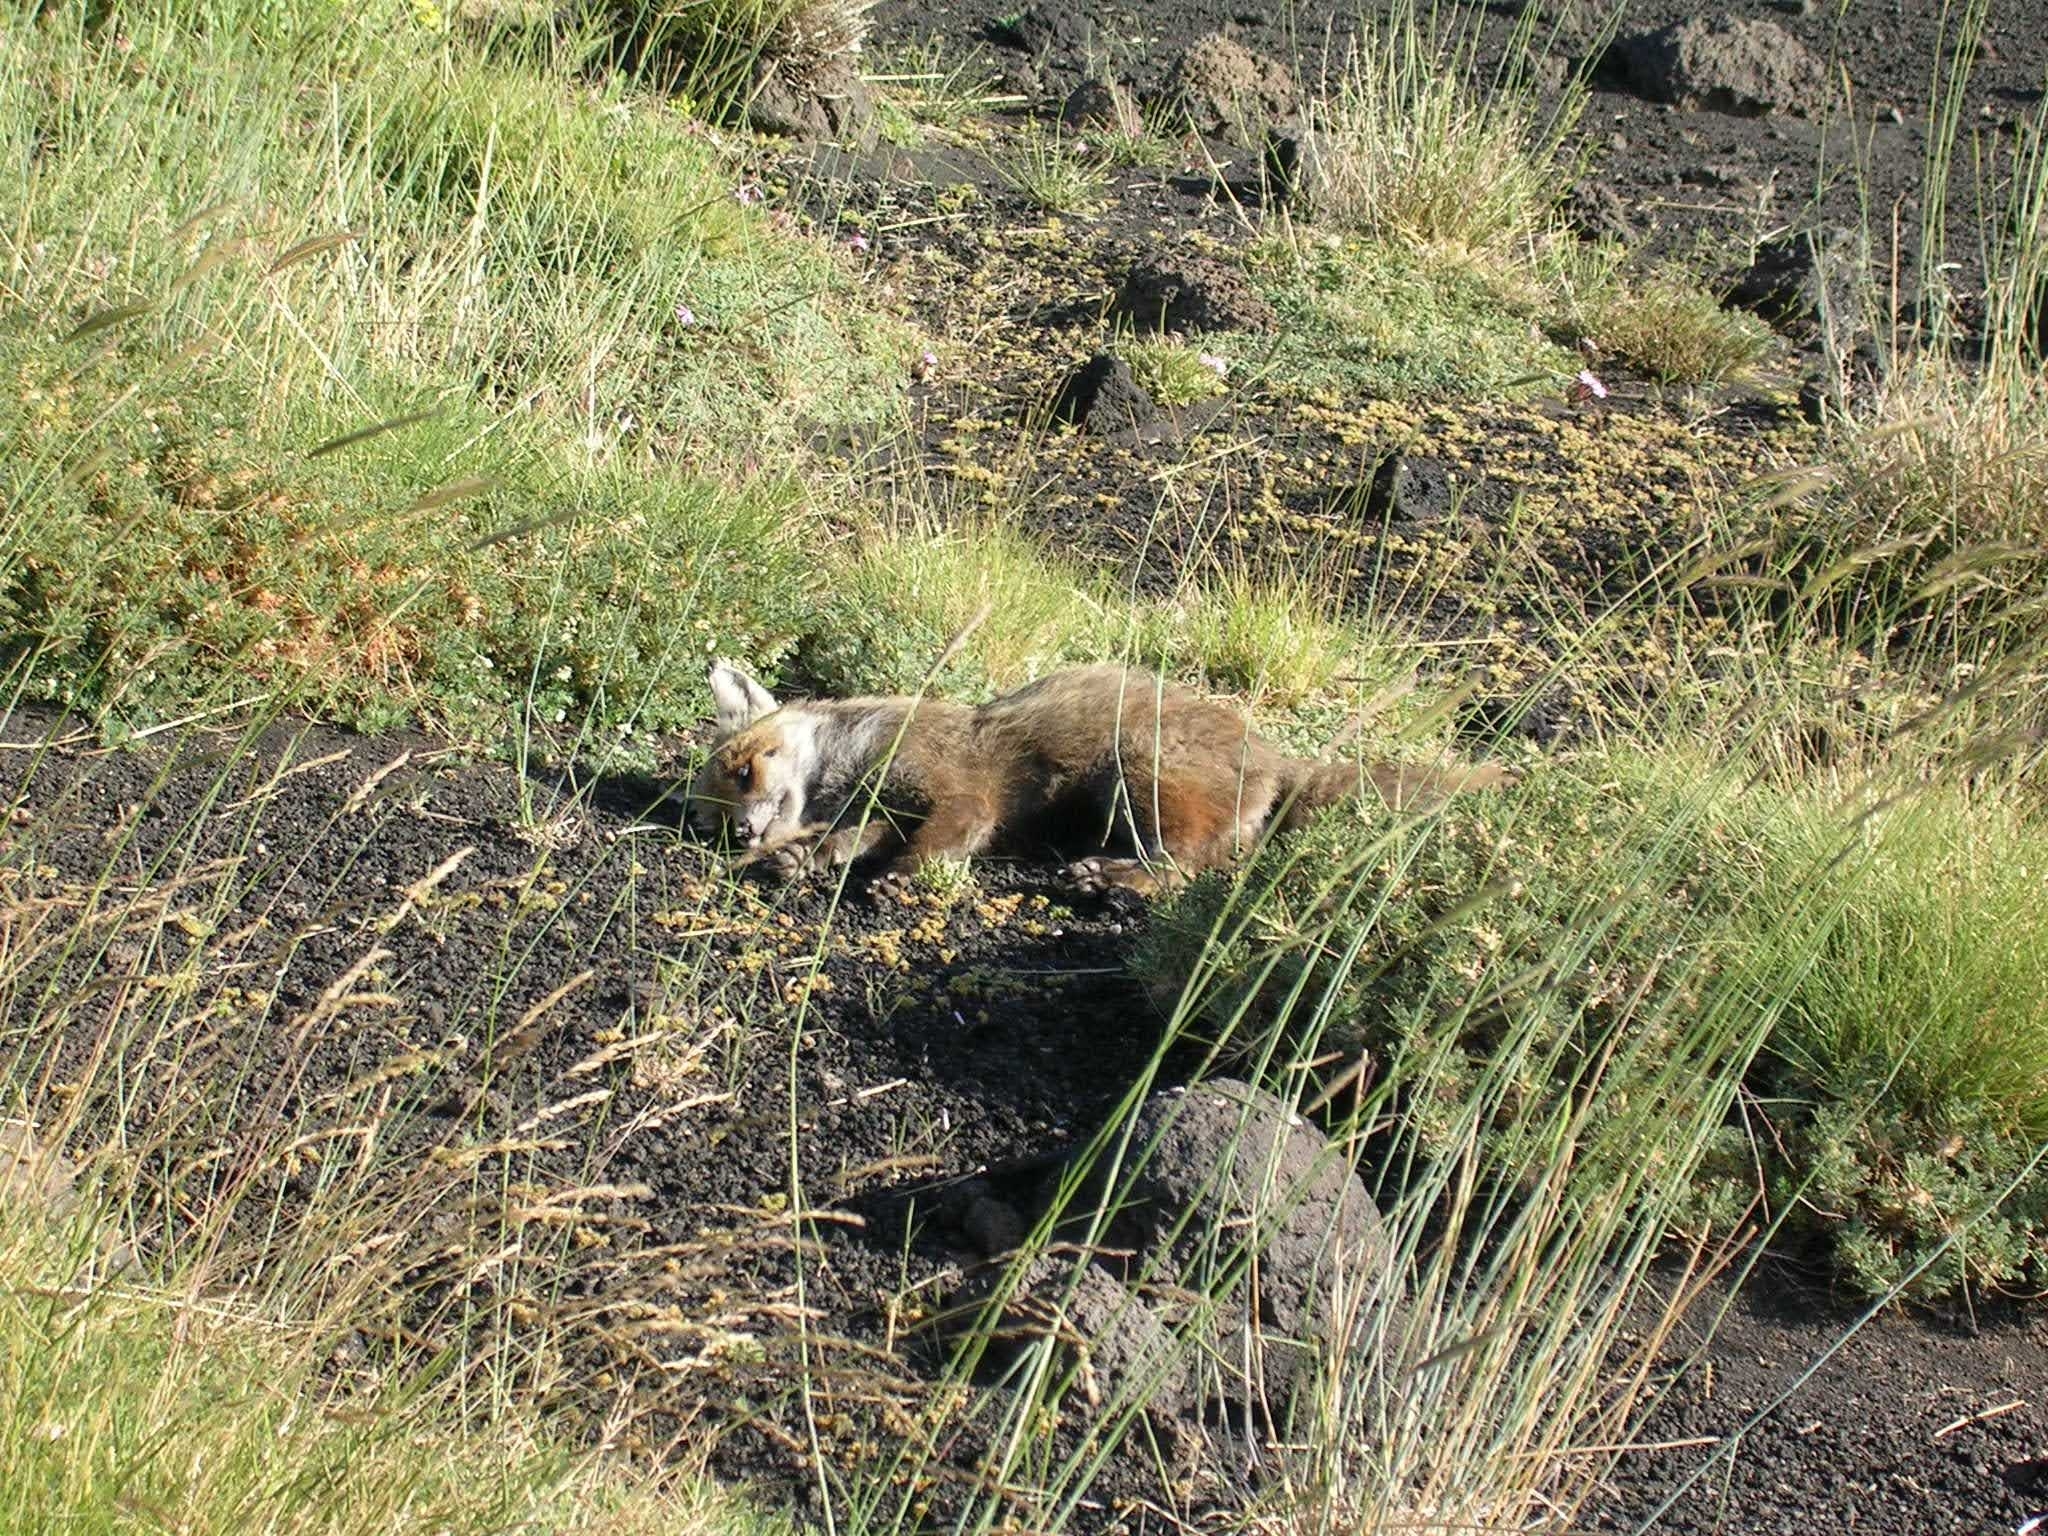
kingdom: Animalia
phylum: Chordata
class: Mammalia
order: Carnivora
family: Canidae
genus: Vulpes
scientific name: Vulpes vulpes
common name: Red fox
